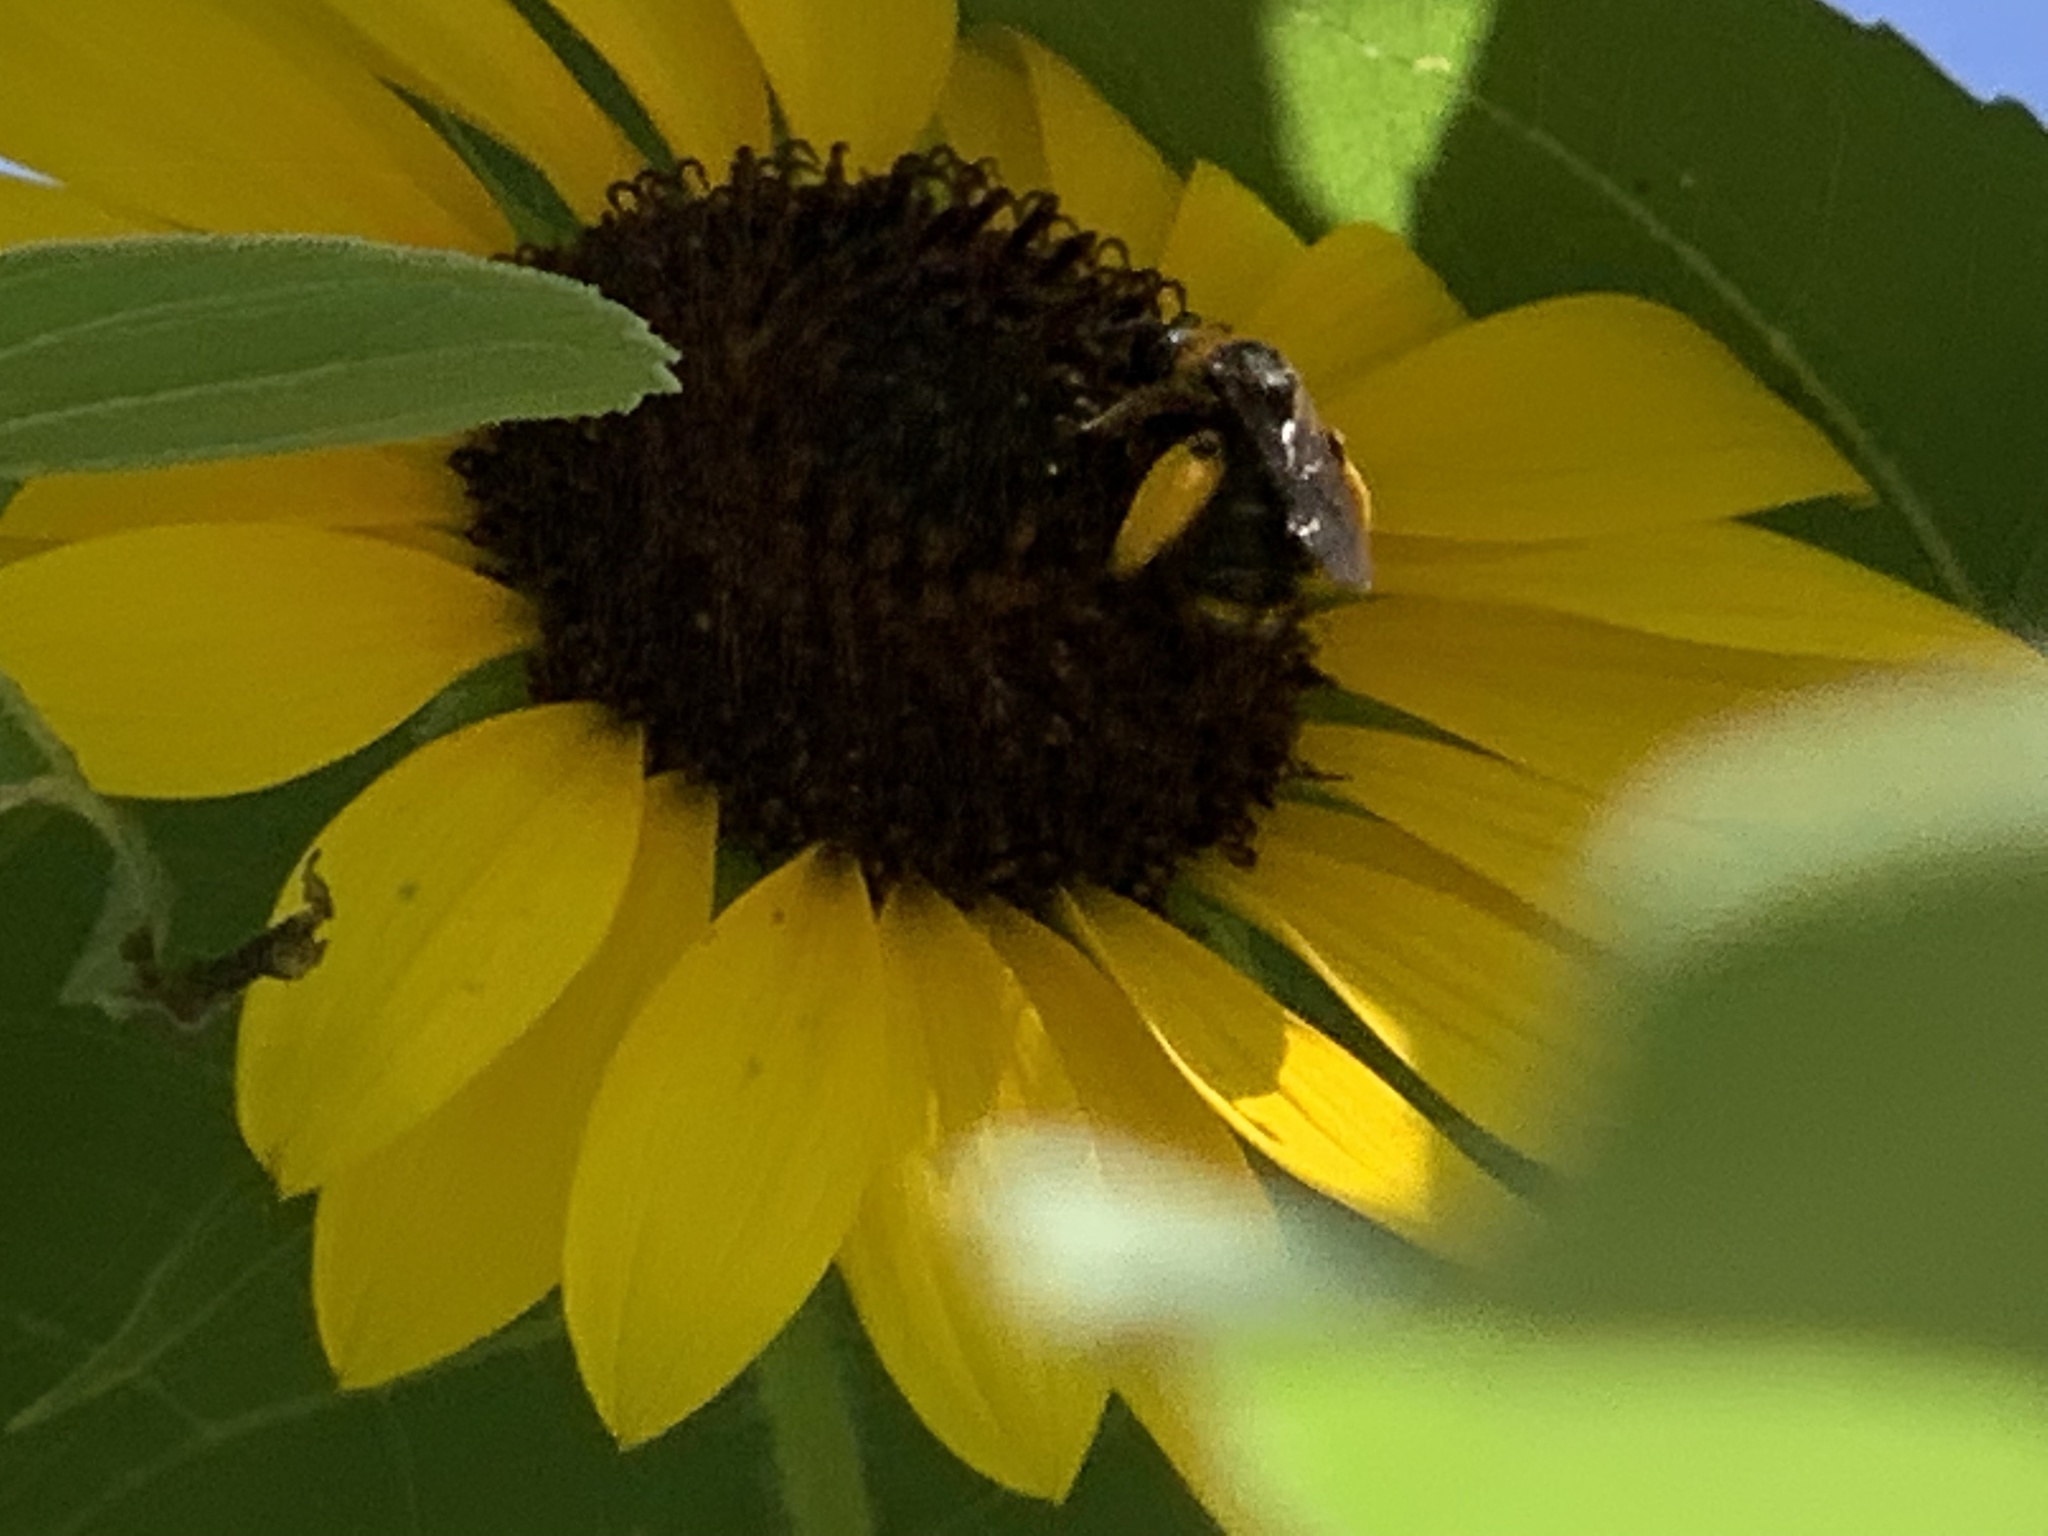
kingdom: Animalia
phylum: Arthropoda
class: Insecta
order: Hymenoptera
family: Apidae
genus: Svastra
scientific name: Svastra obliqua
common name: Oblique longhorn
